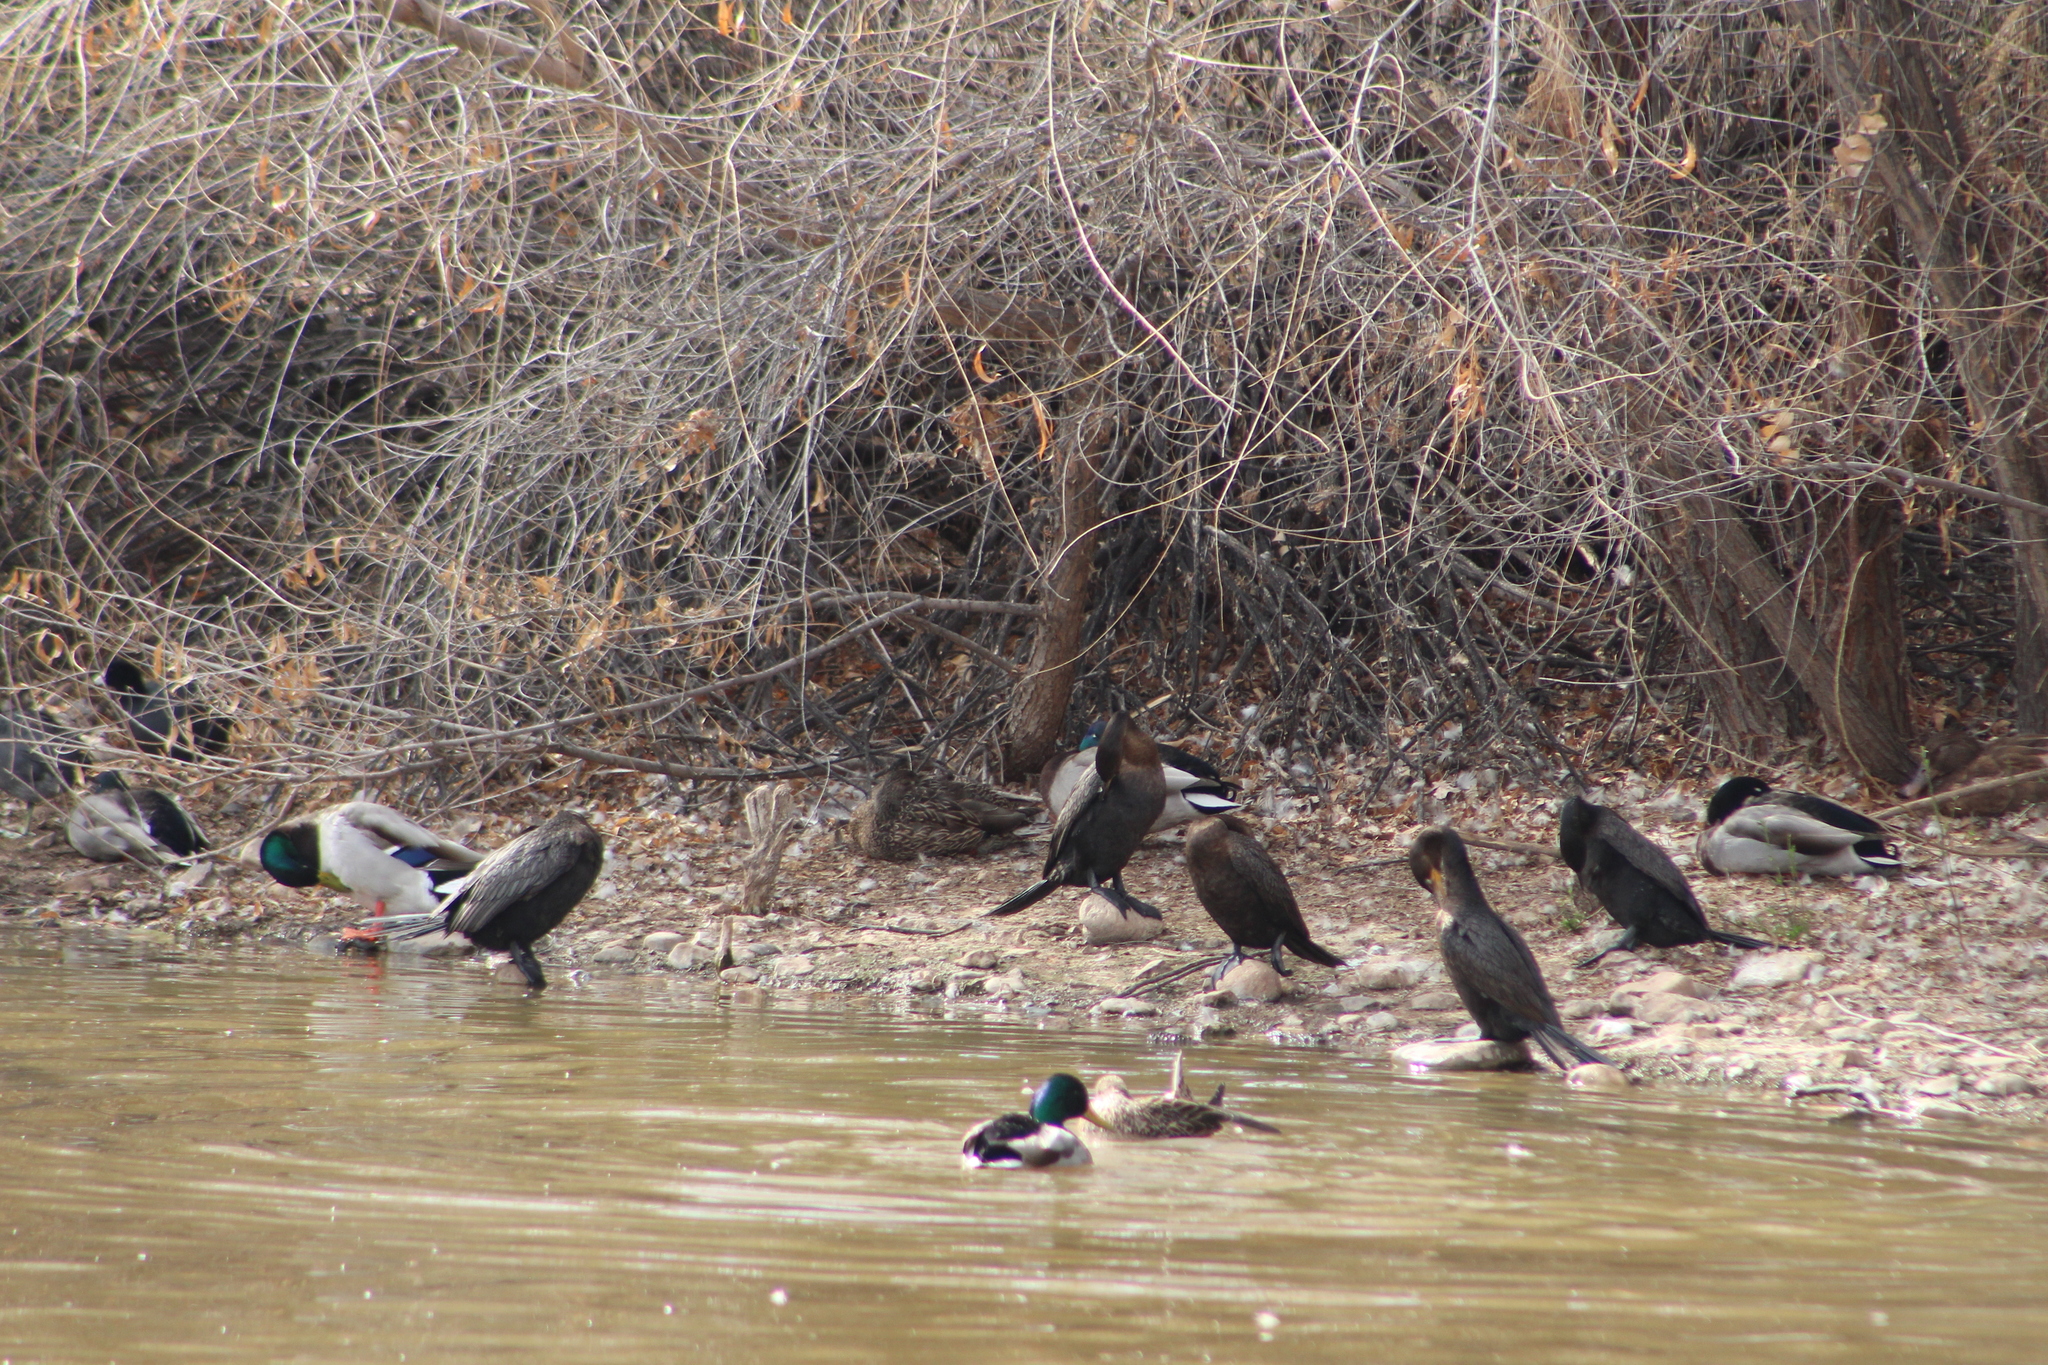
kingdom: Animalia
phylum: Chordata
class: Aves
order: Suliformes
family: Phalacrocoracidae
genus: Phalacrocorax
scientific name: Phalacrocorax brasilianus
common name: Neotropic cormorant
